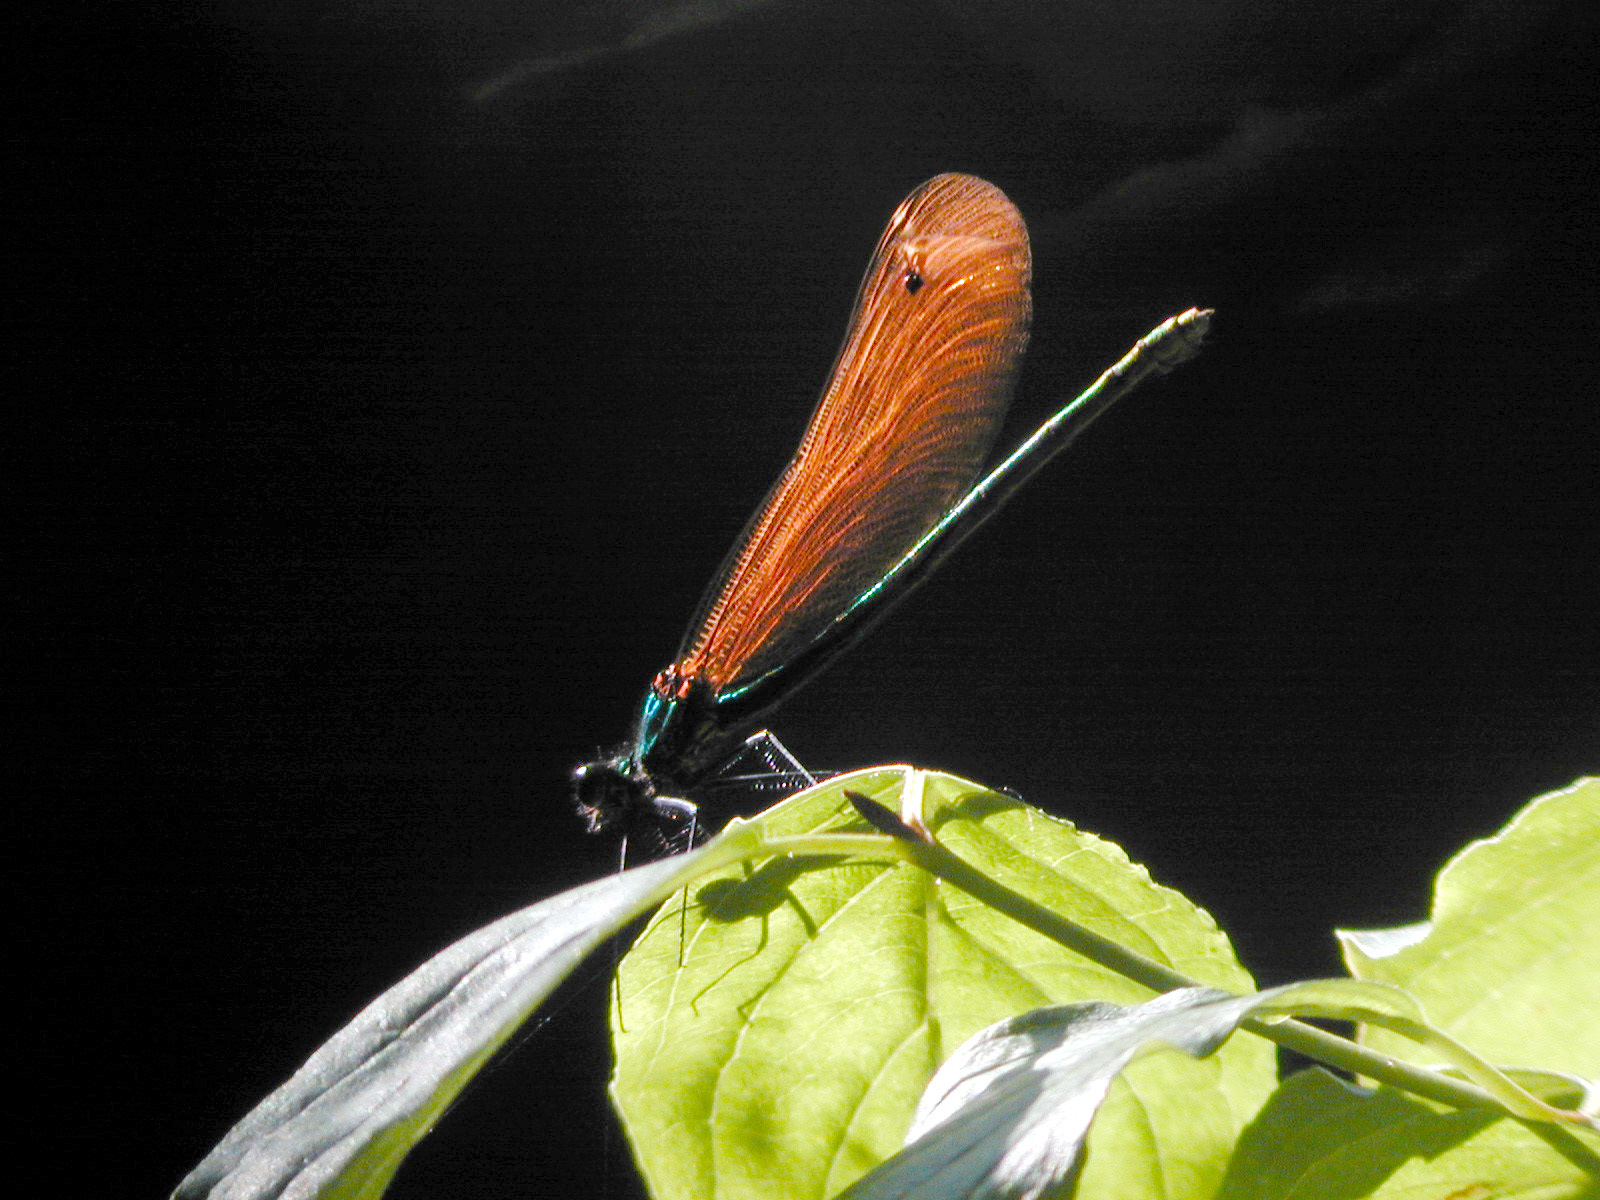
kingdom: Animalia
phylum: Arthropoda
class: Insecta
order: Odonata
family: Calopterygidae
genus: Calopteryx
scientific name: Calopteryx virgo
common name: Beautiful demoiselle
